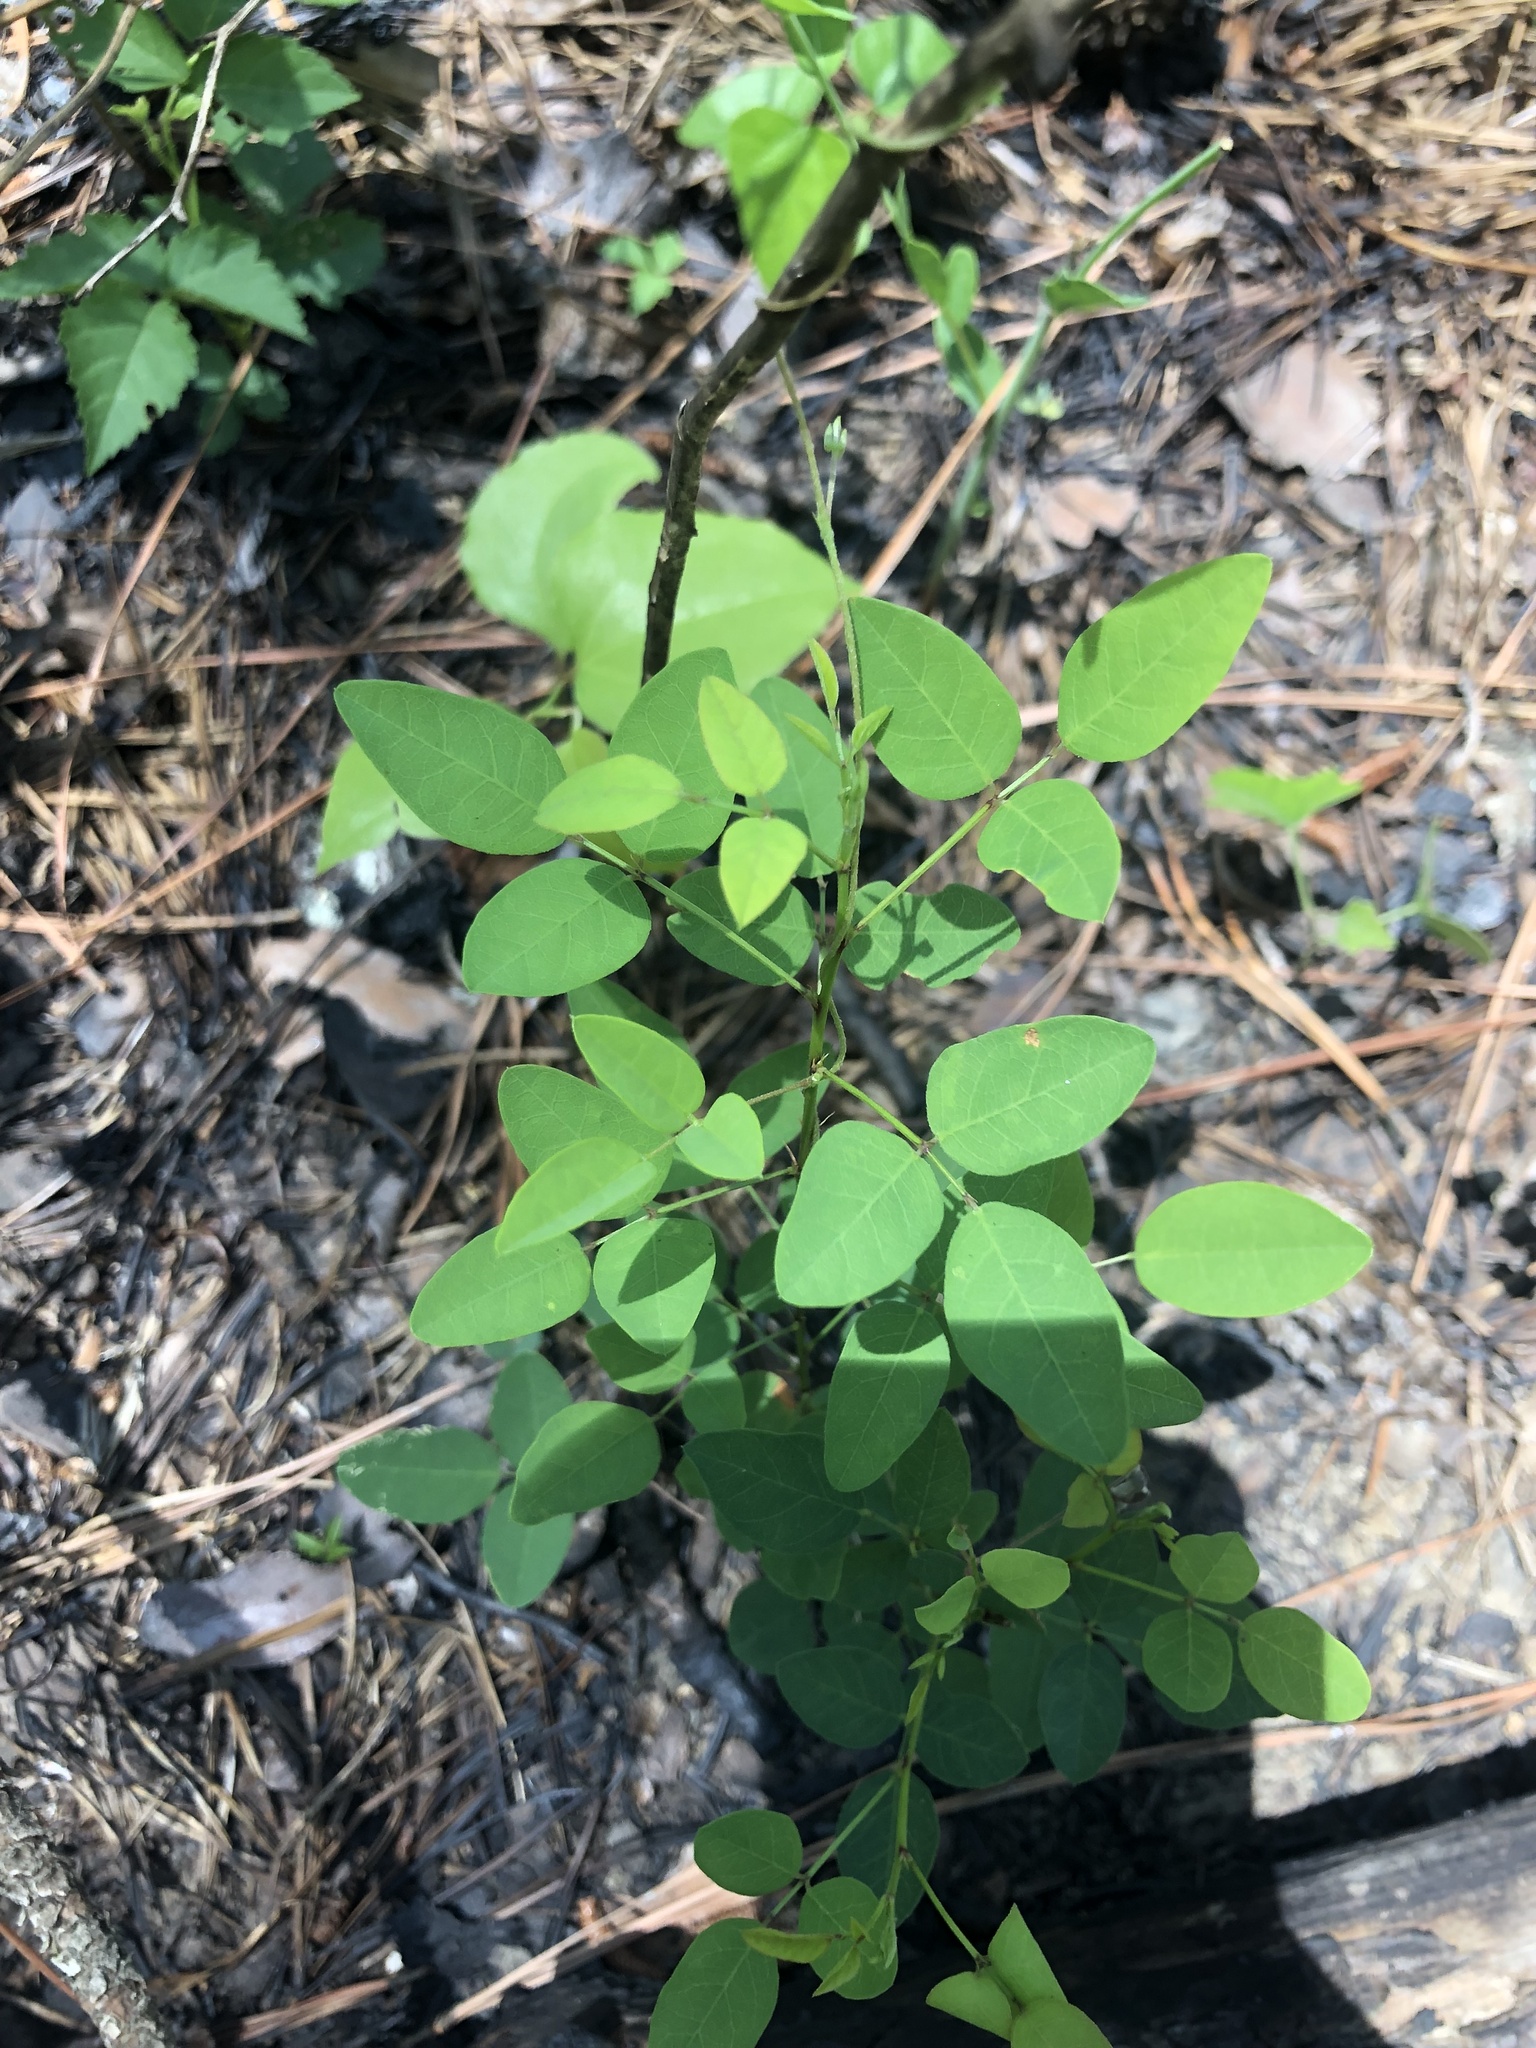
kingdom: Plantae
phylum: Tracheophyta
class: Magnoliopsida
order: Fabales
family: Fabaceae
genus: Desmodium
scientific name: Desmodium marilandicum
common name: Maryland tick-trefoil
